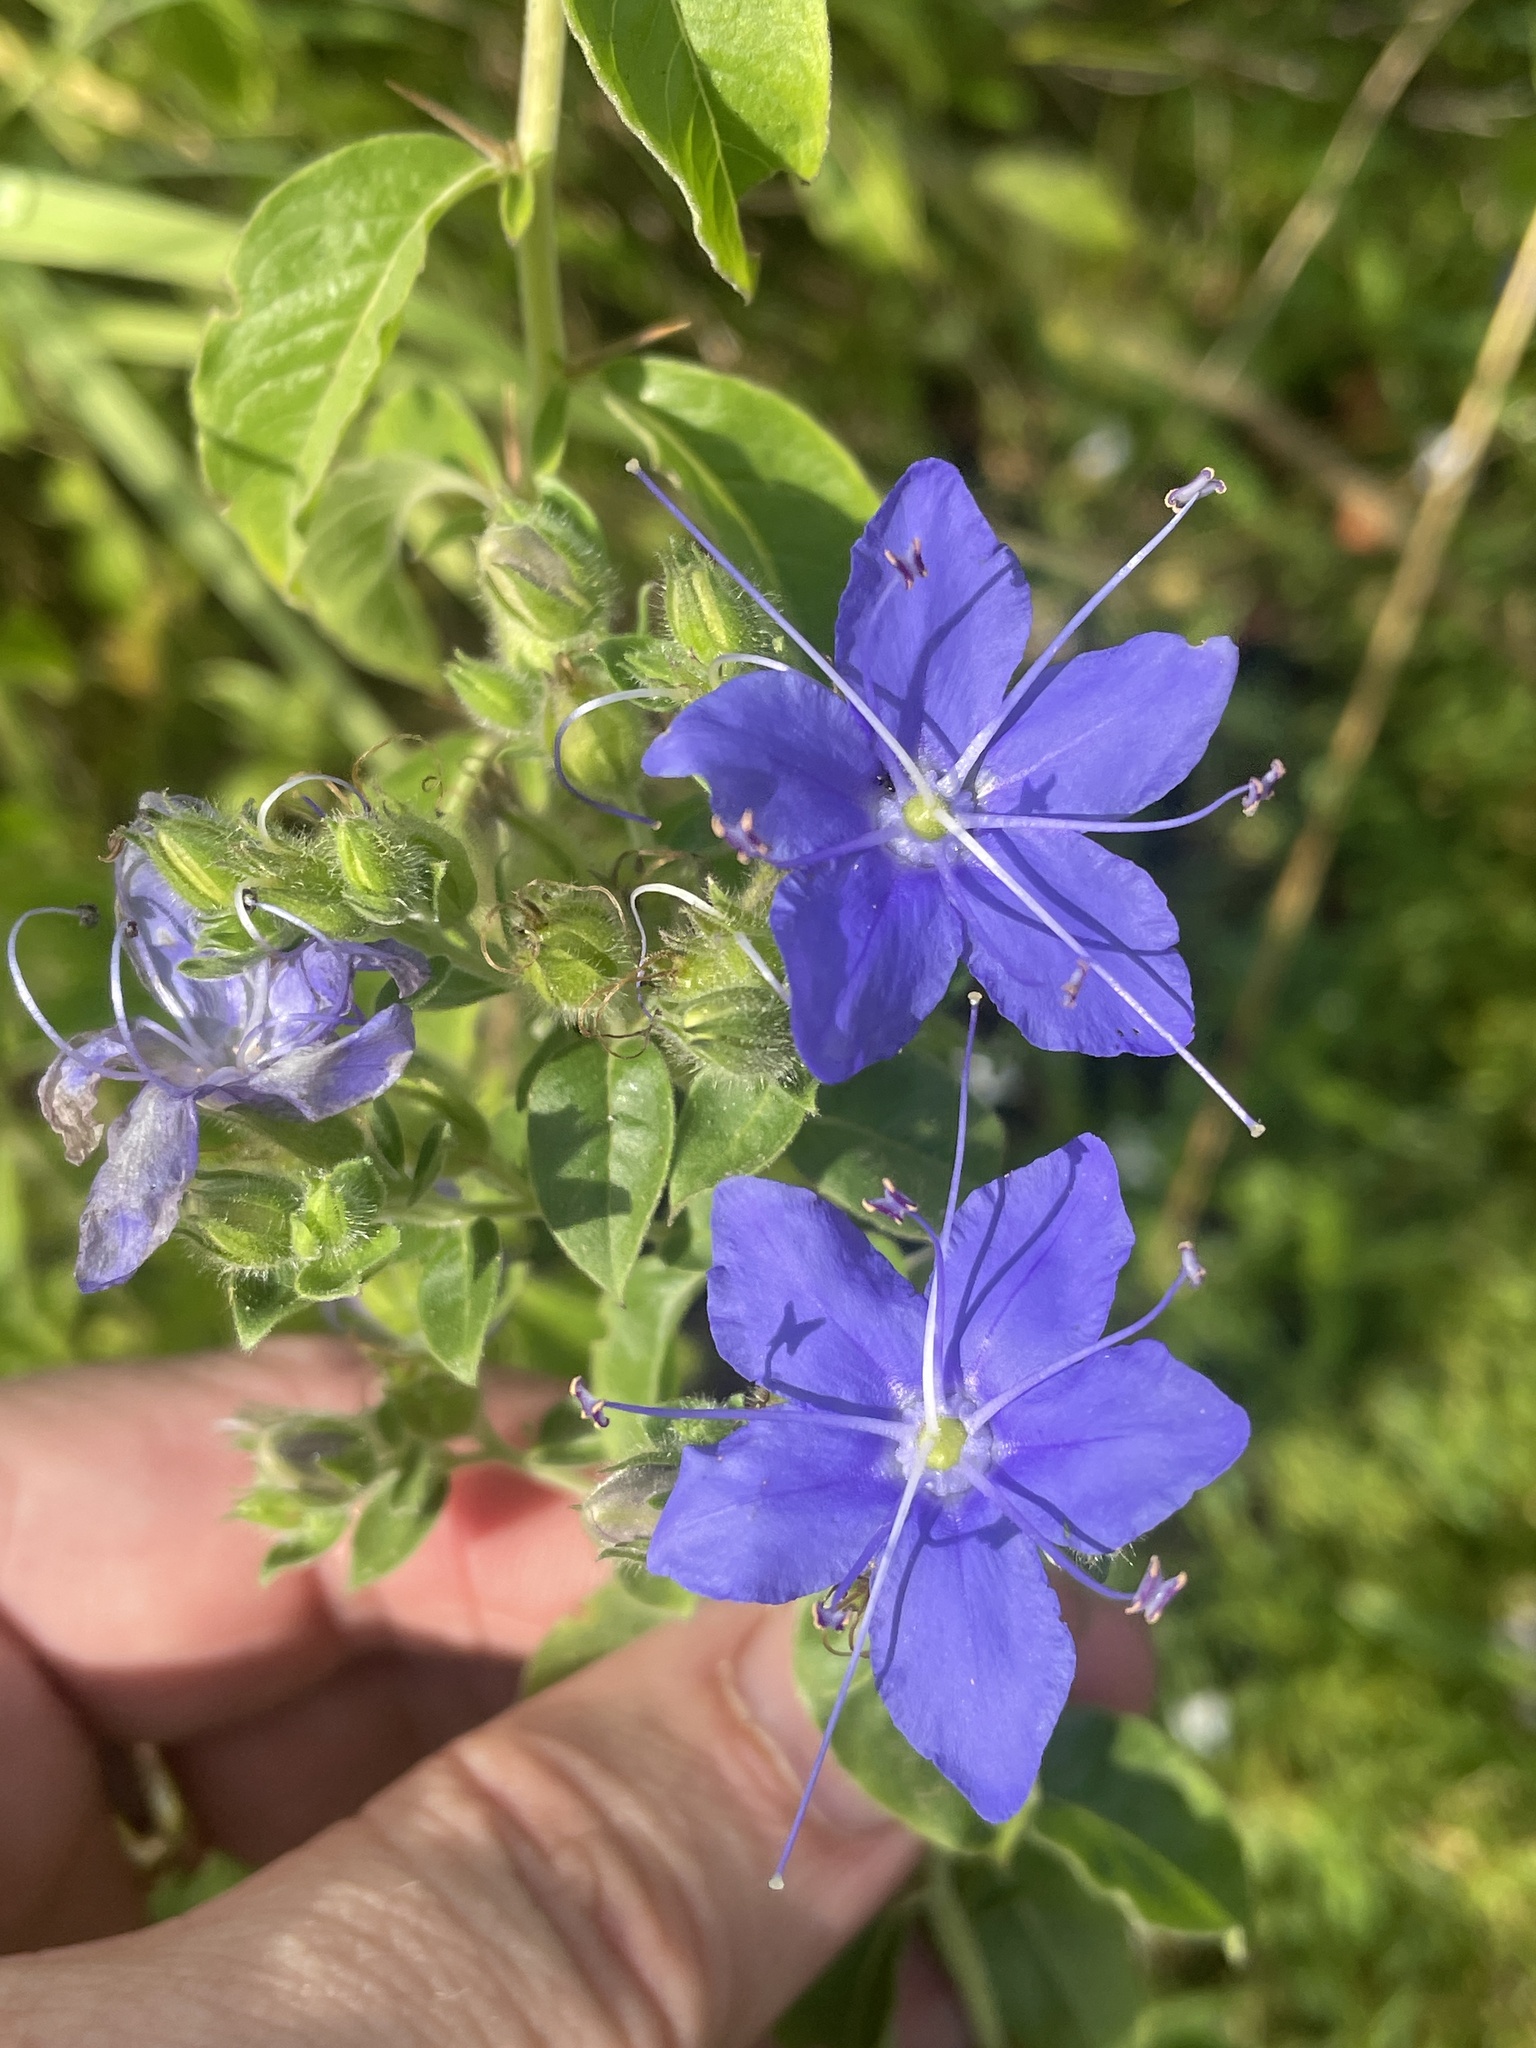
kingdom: Plantae
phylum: Tracheophyta
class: Magnoliopsida
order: Solanales
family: Hydroleaceae
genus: Hydrolea
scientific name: Hydrolea ovata
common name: Ovate false fiddleleaf
